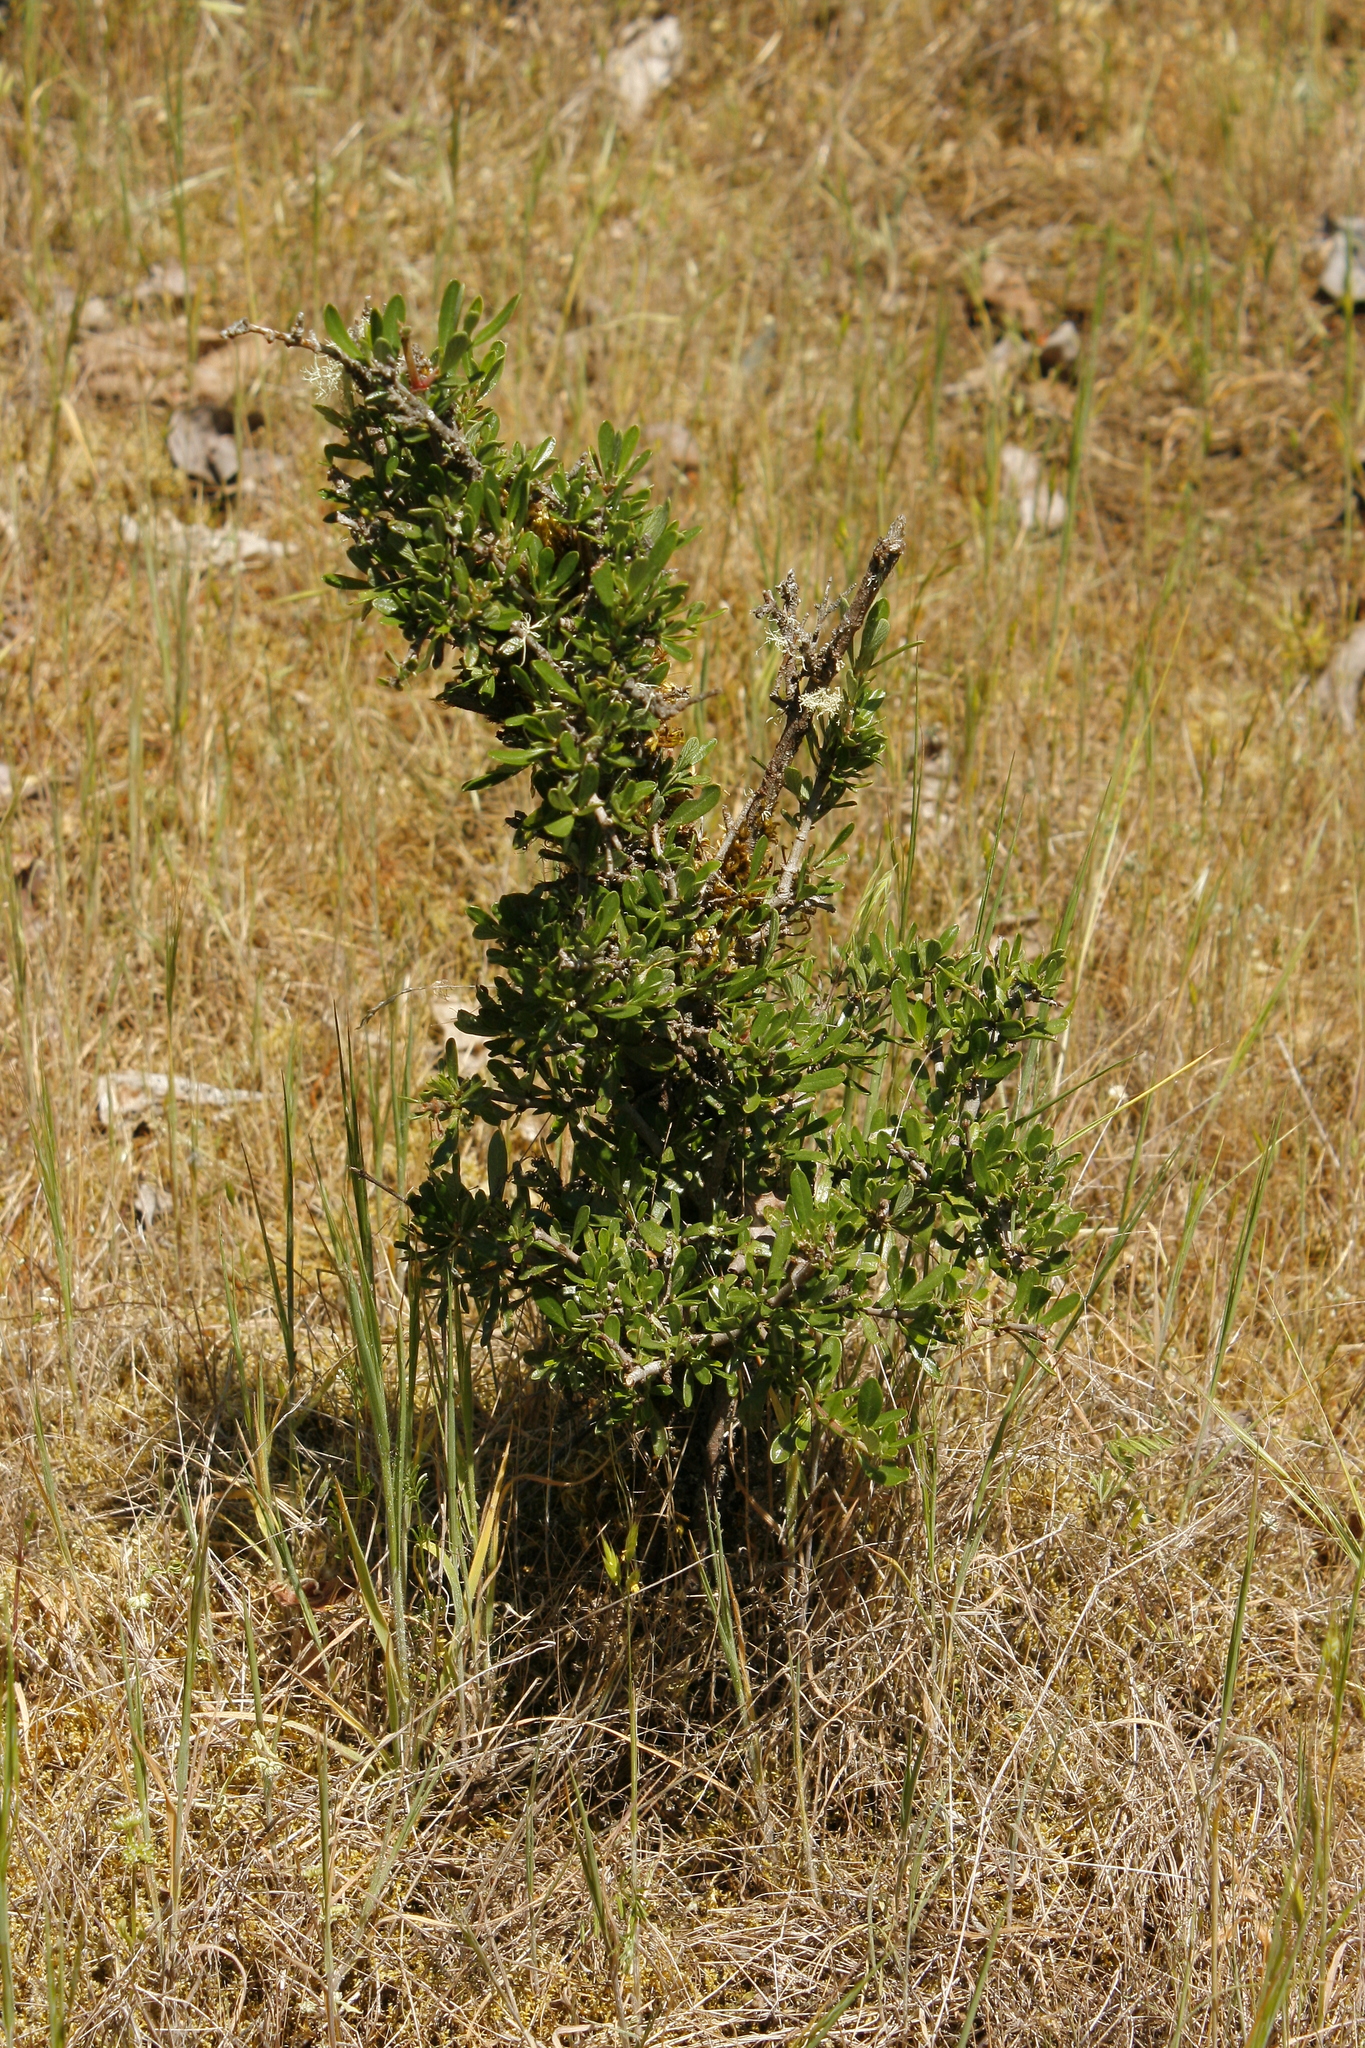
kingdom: Plantae
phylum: Tracheophyta
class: Magnoliopsida
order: Rosales
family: Rhamnaceae
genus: Ceanothus
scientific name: Ceanothus cuneatus
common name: Cuneate ceanothus
